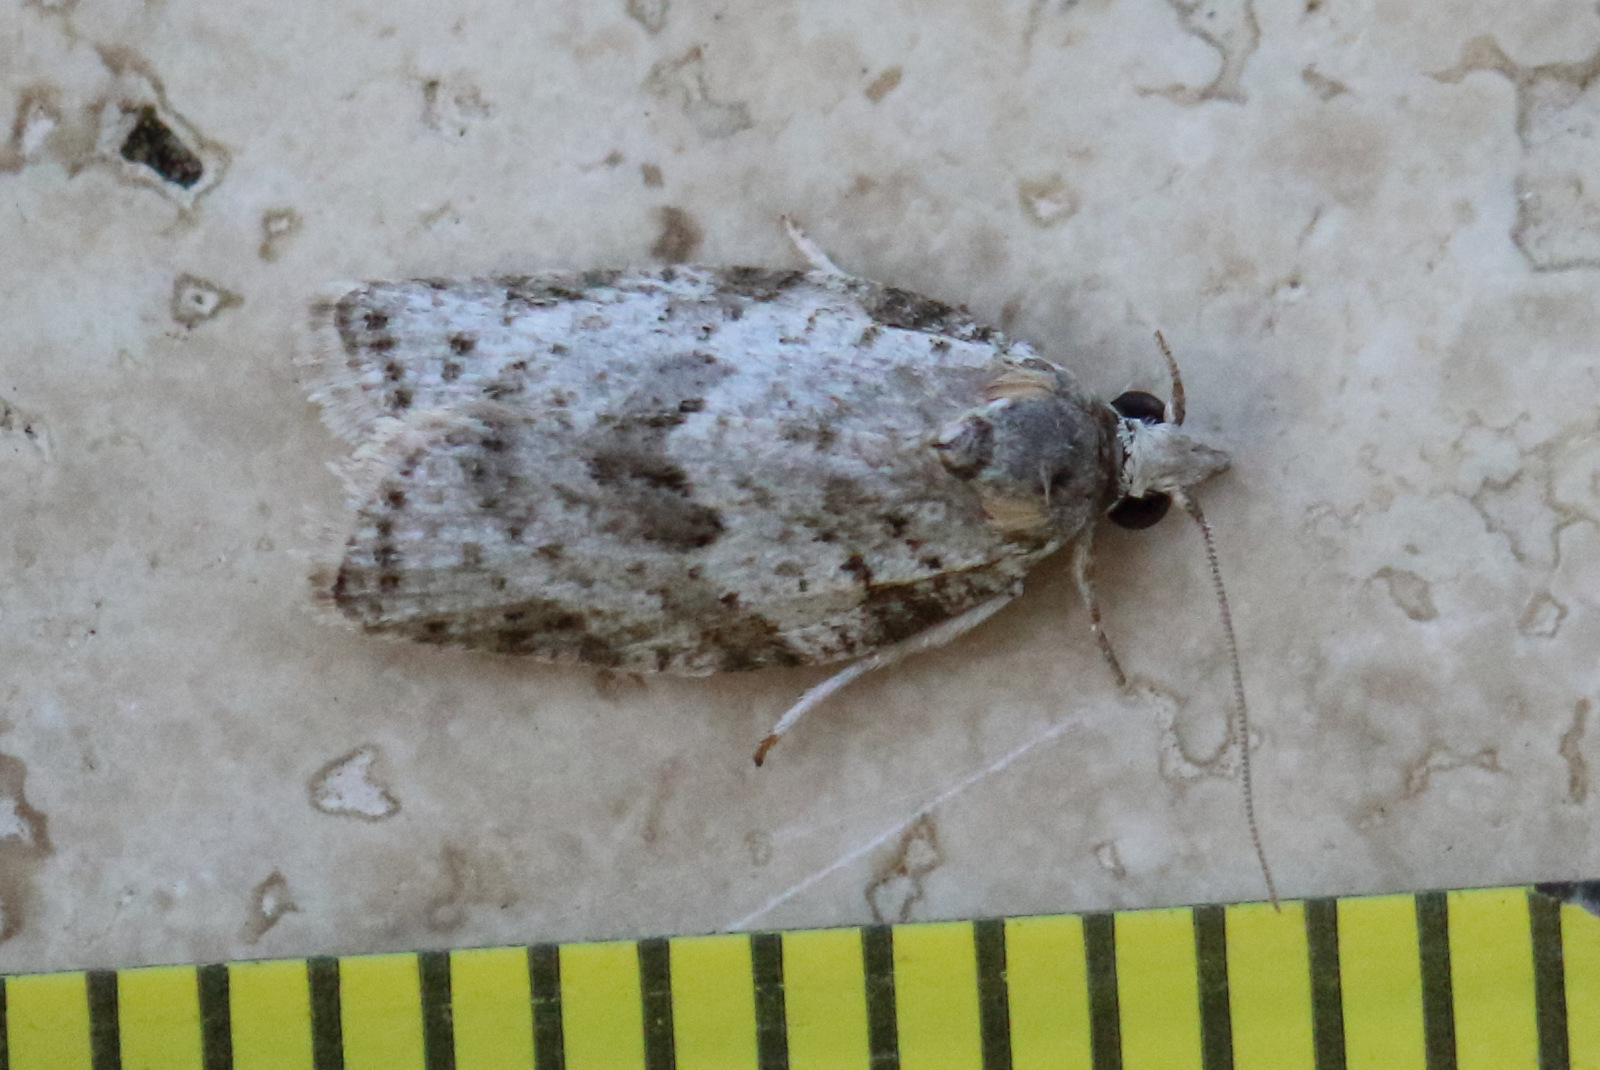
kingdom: Animalia
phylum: Arthropoda
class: Insecta
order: Lepidoptera
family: Tortricidae
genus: Isotenes
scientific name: Isotenes miserana
